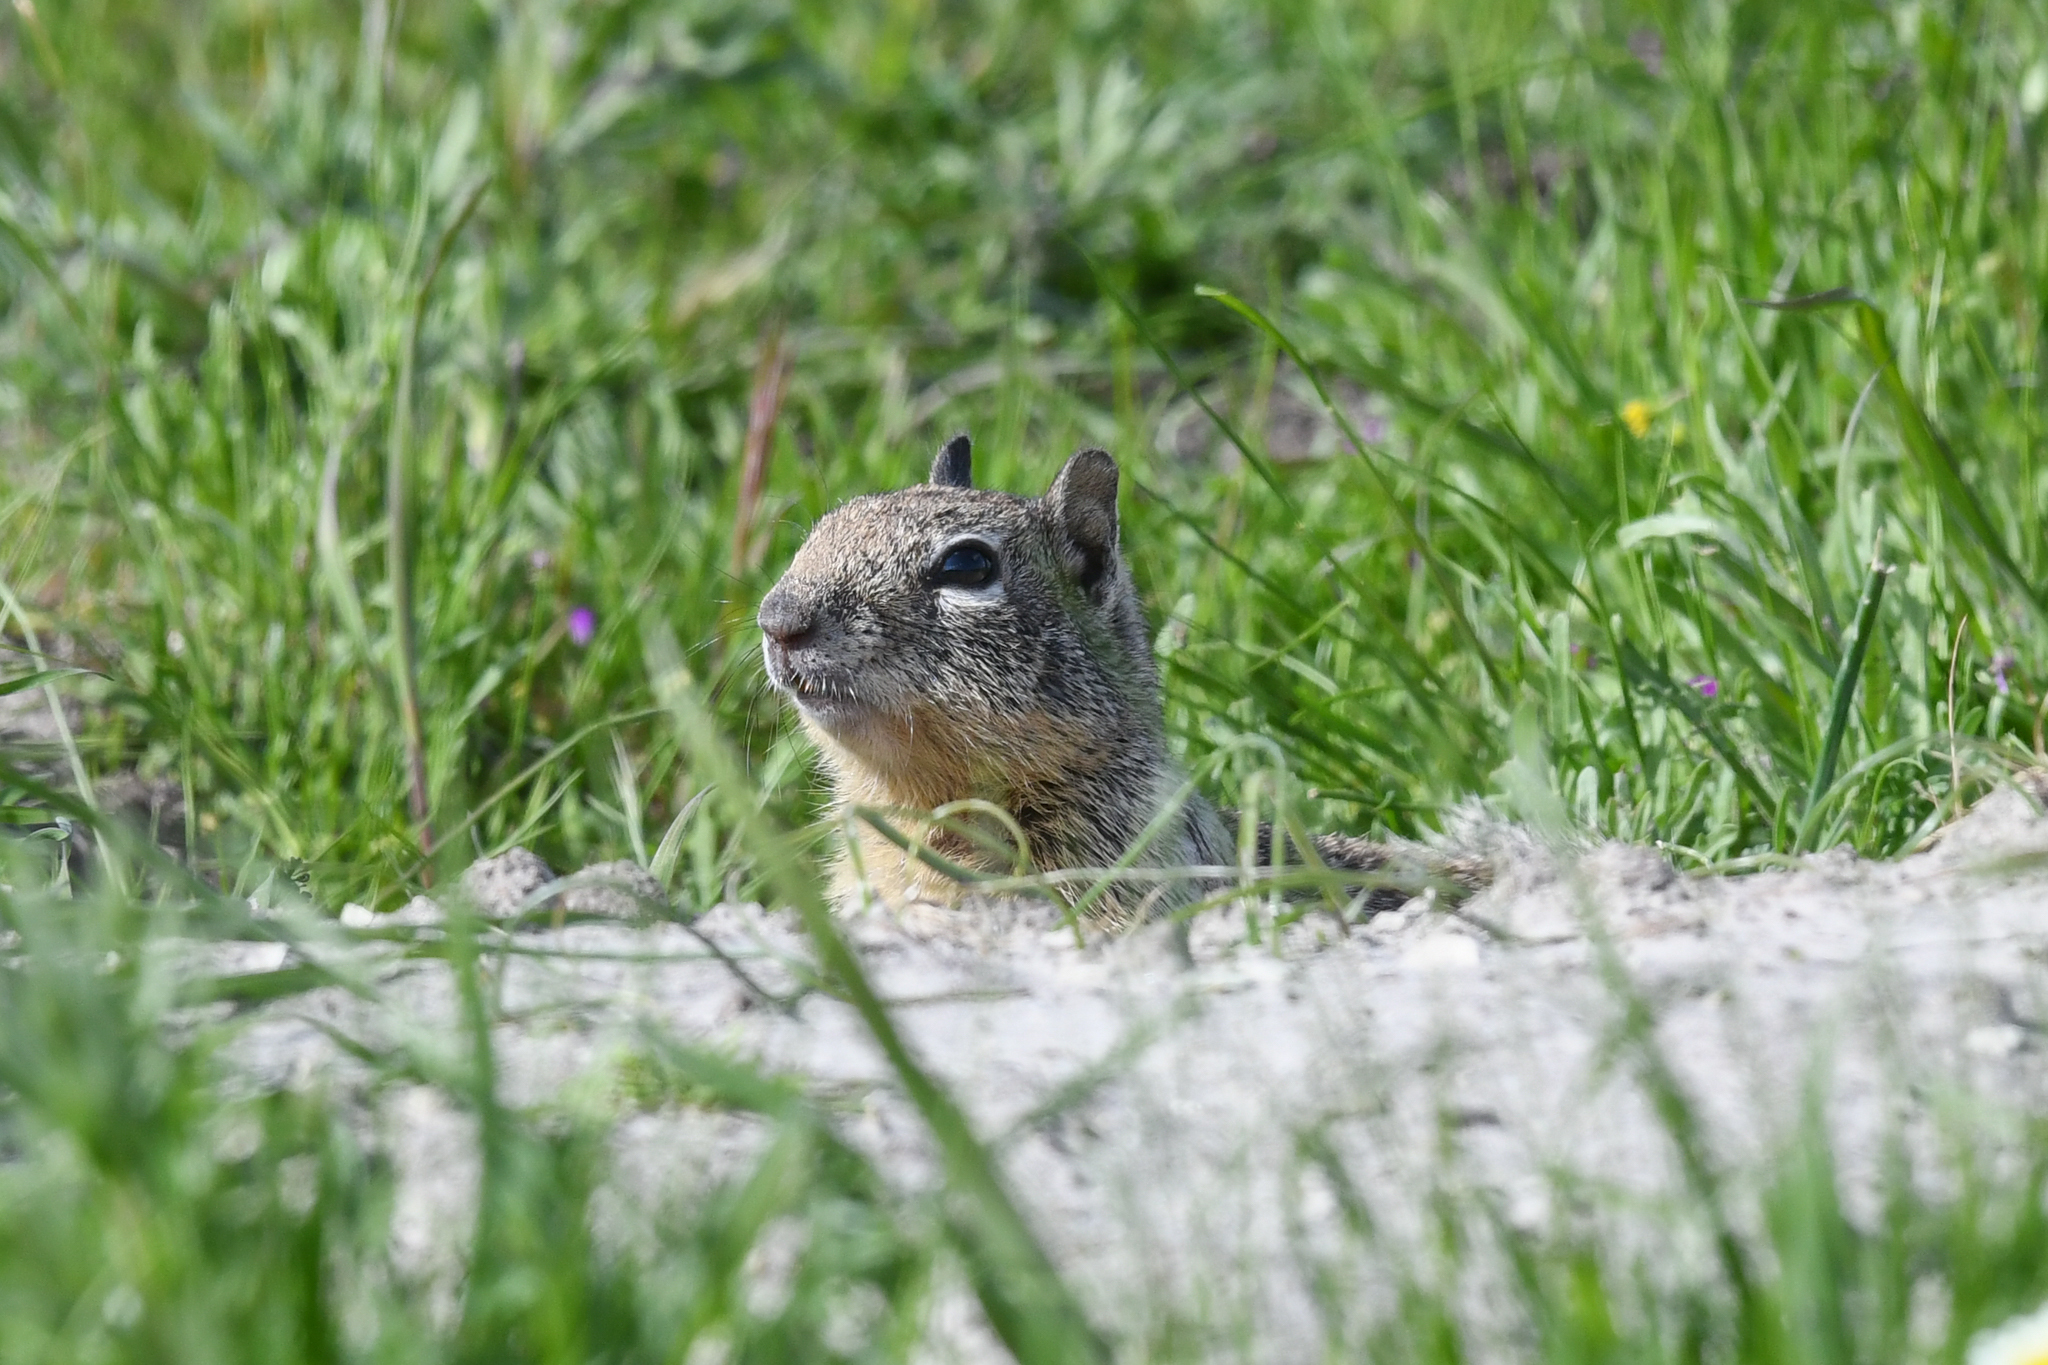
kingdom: Animalia
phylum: Chordata
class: Mammalia
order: Rodentia
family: Sciuridae
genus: Otospermophilus
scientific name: Otospermophilus beecheyi
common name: California ground squirrel
